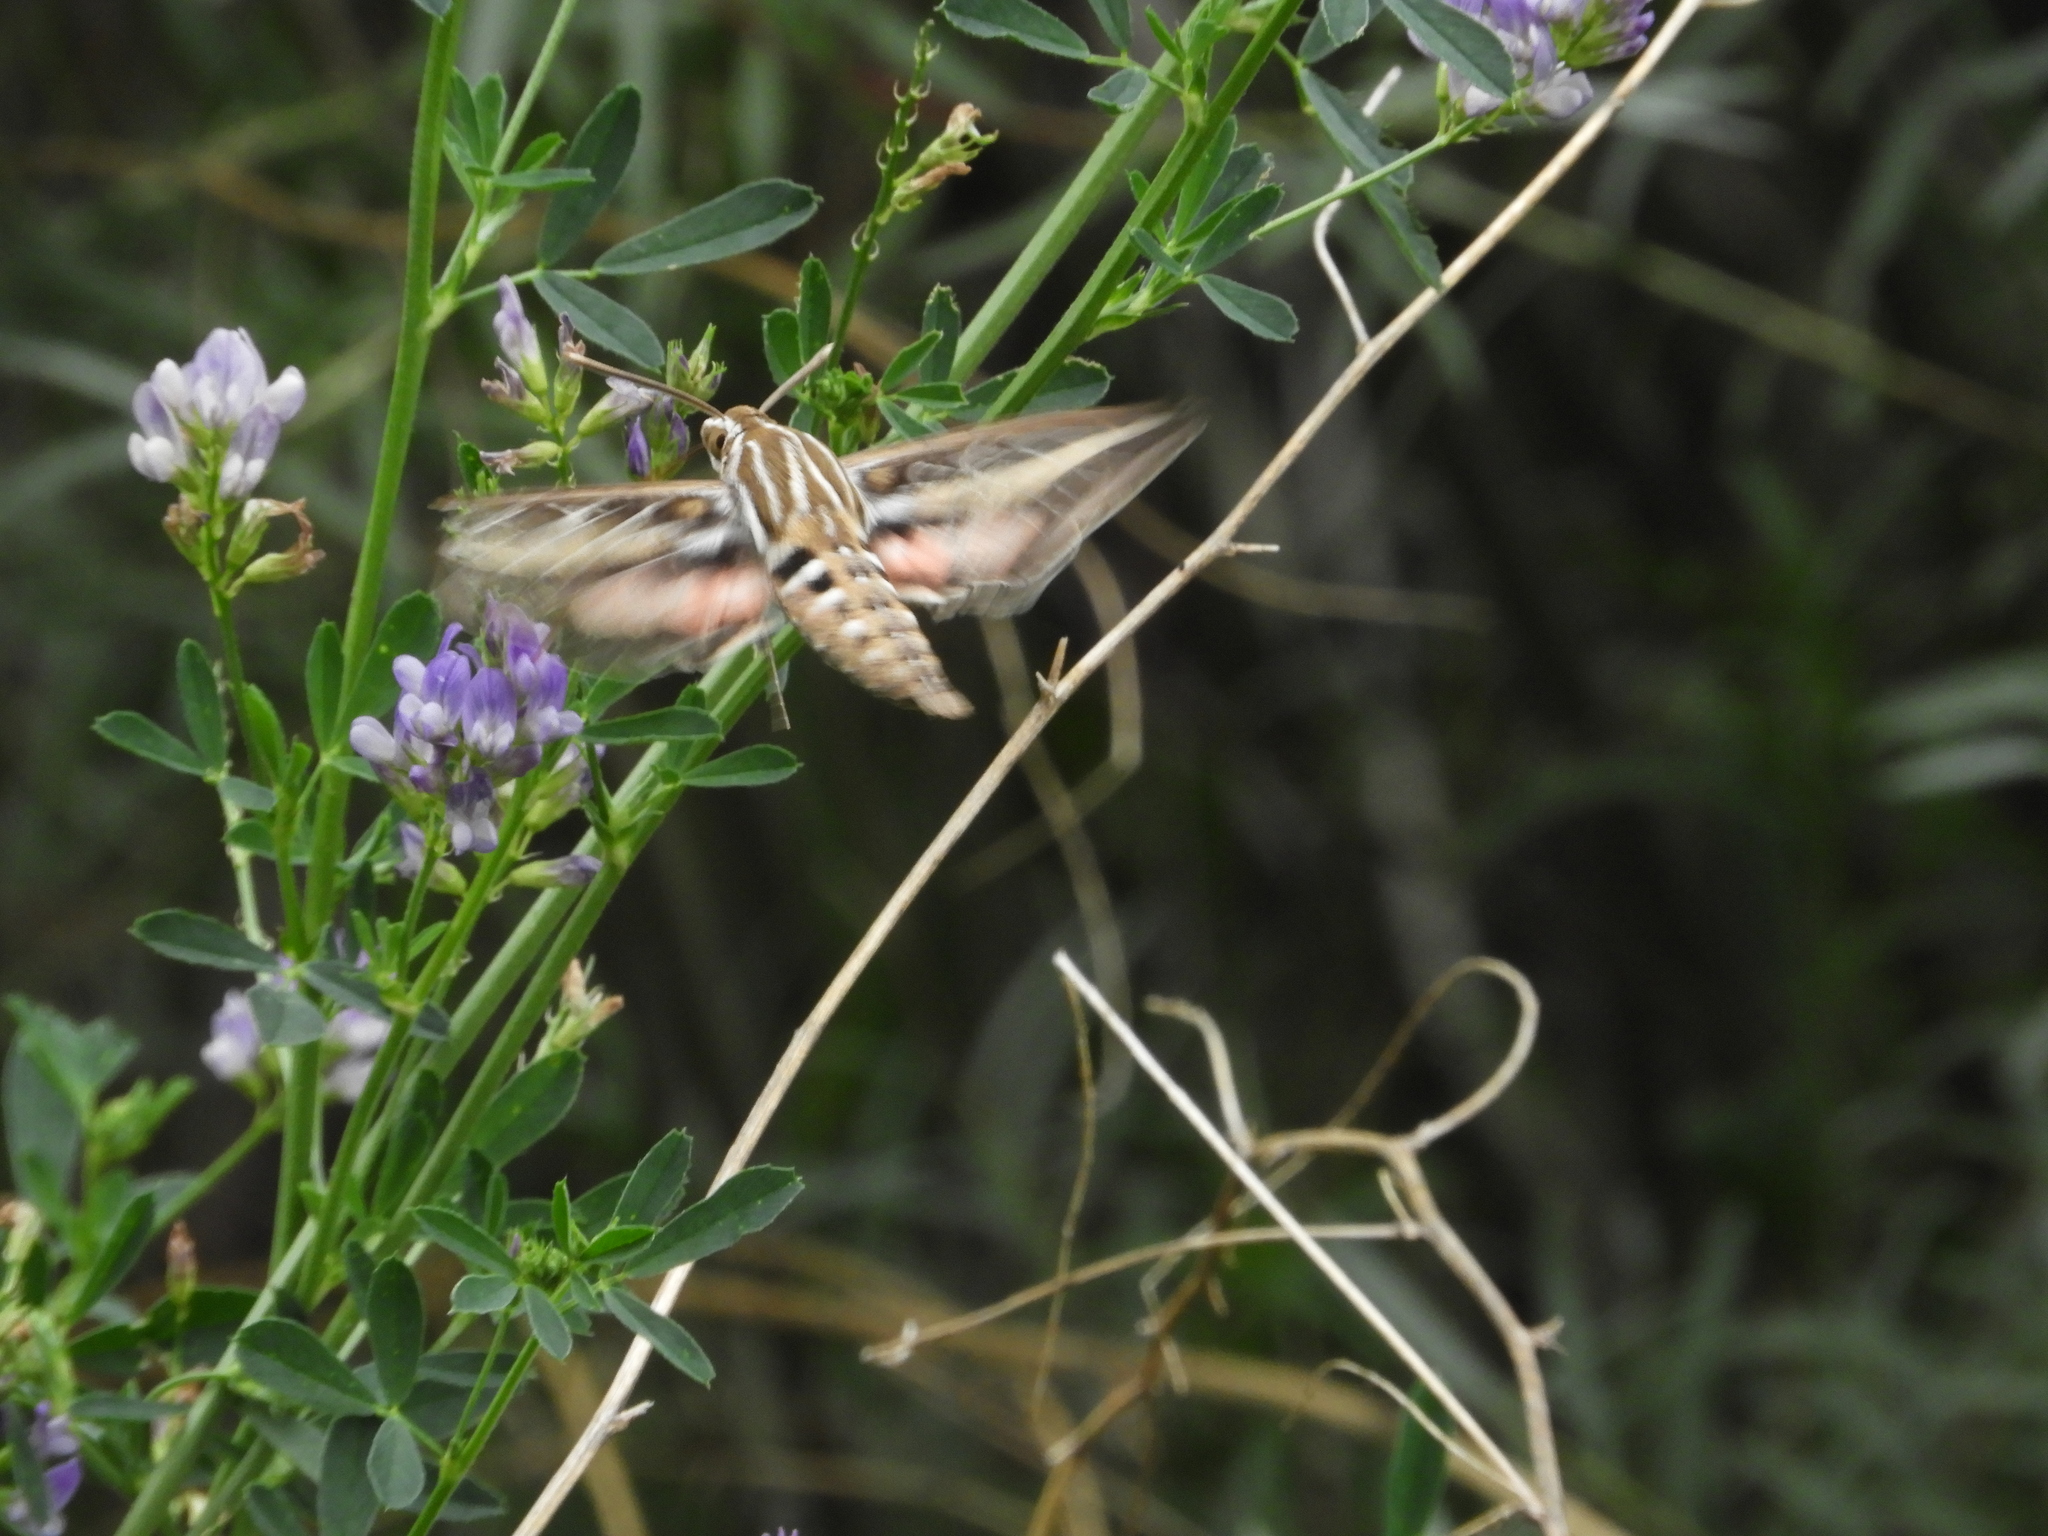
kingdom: Animalia
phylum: Arthropoda
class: Insecta
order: Lepidoptera
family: Sphingidae
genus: Hyles
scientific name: Hyles lineata
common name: White-lined sphinx
